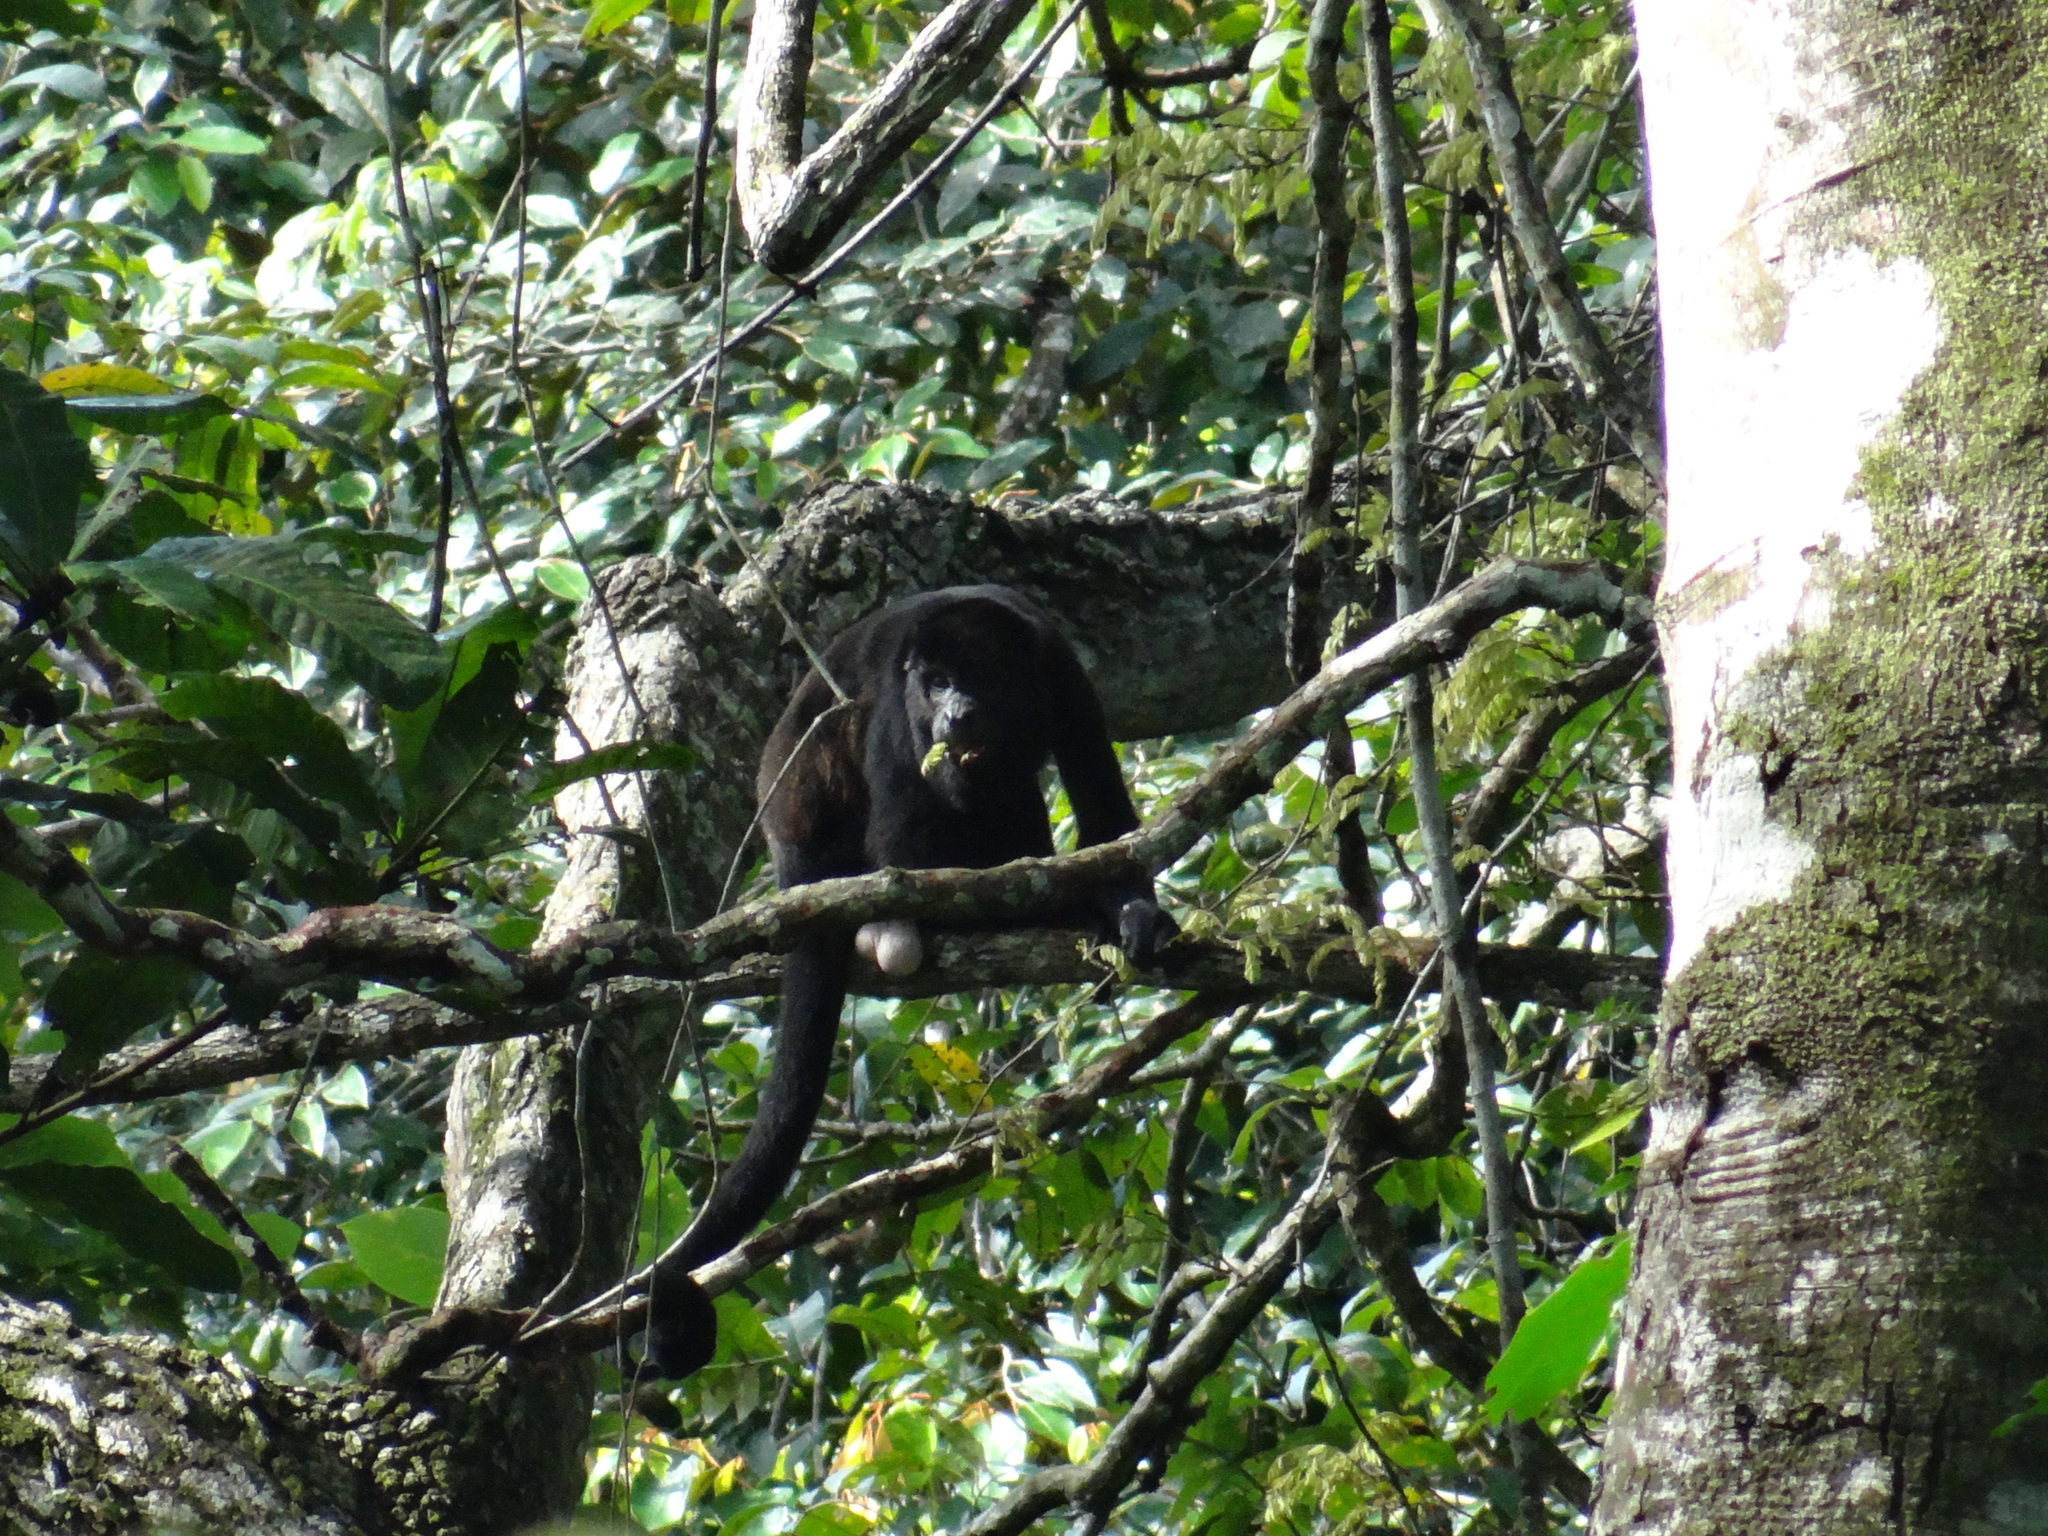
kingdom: Animalia
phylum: Chordata
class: Mammalia
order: Primates
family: Atelidae
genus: Alouatta
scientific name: Alouatta palliata
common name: Mantled howler
